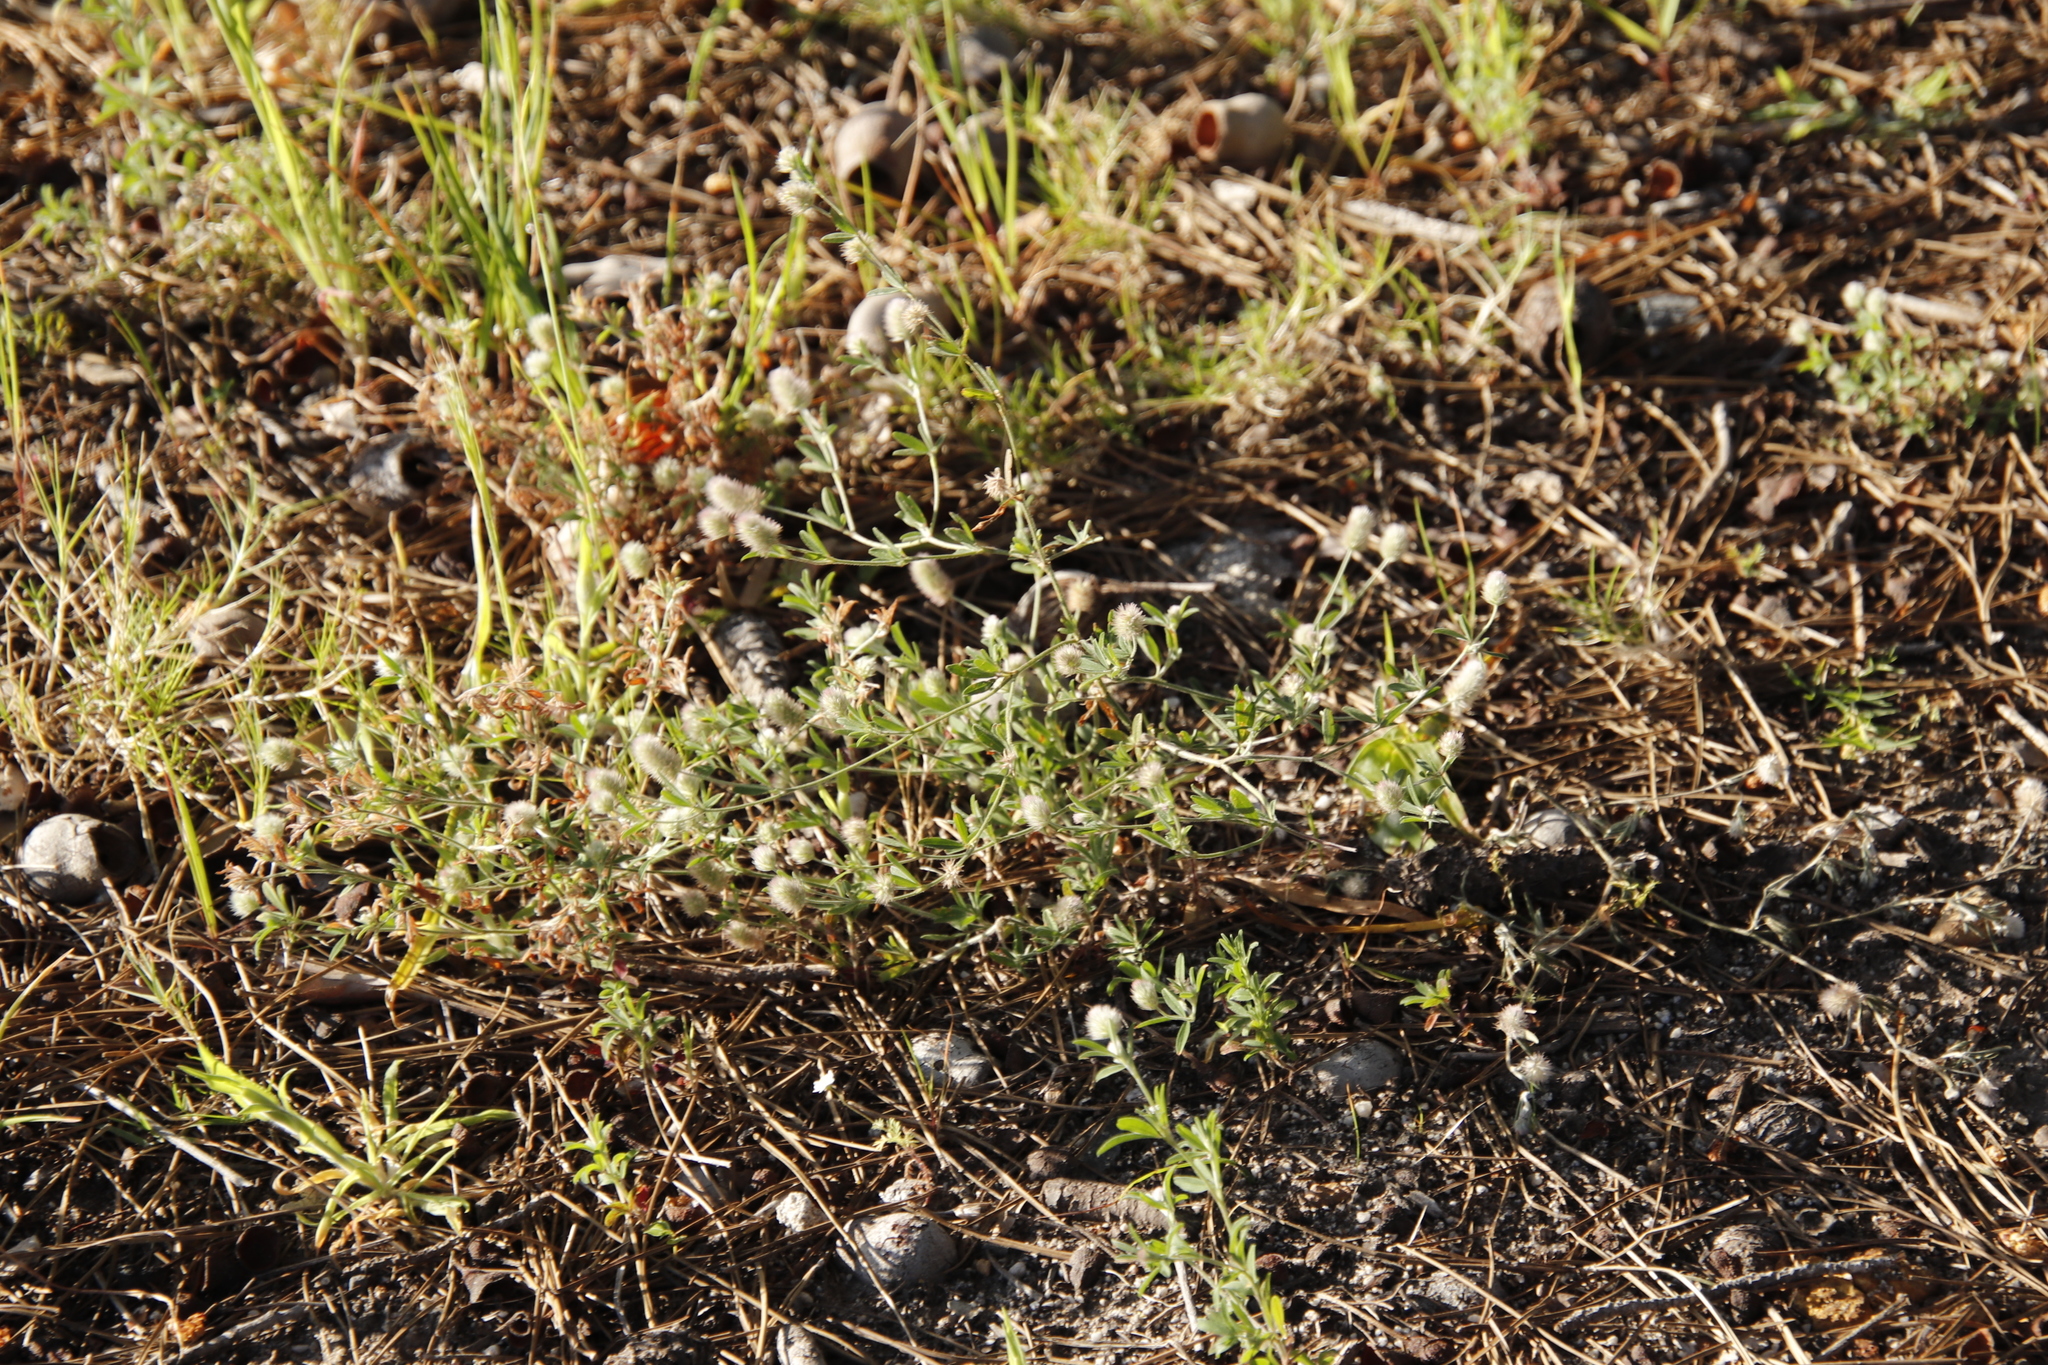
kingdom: Plantae
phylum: Tracheophyta
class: Magnoliopsida
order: Fabales
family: Fabaceae
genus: Trifolium
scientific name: Trifolium arvense
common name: Hare's-foot clover
